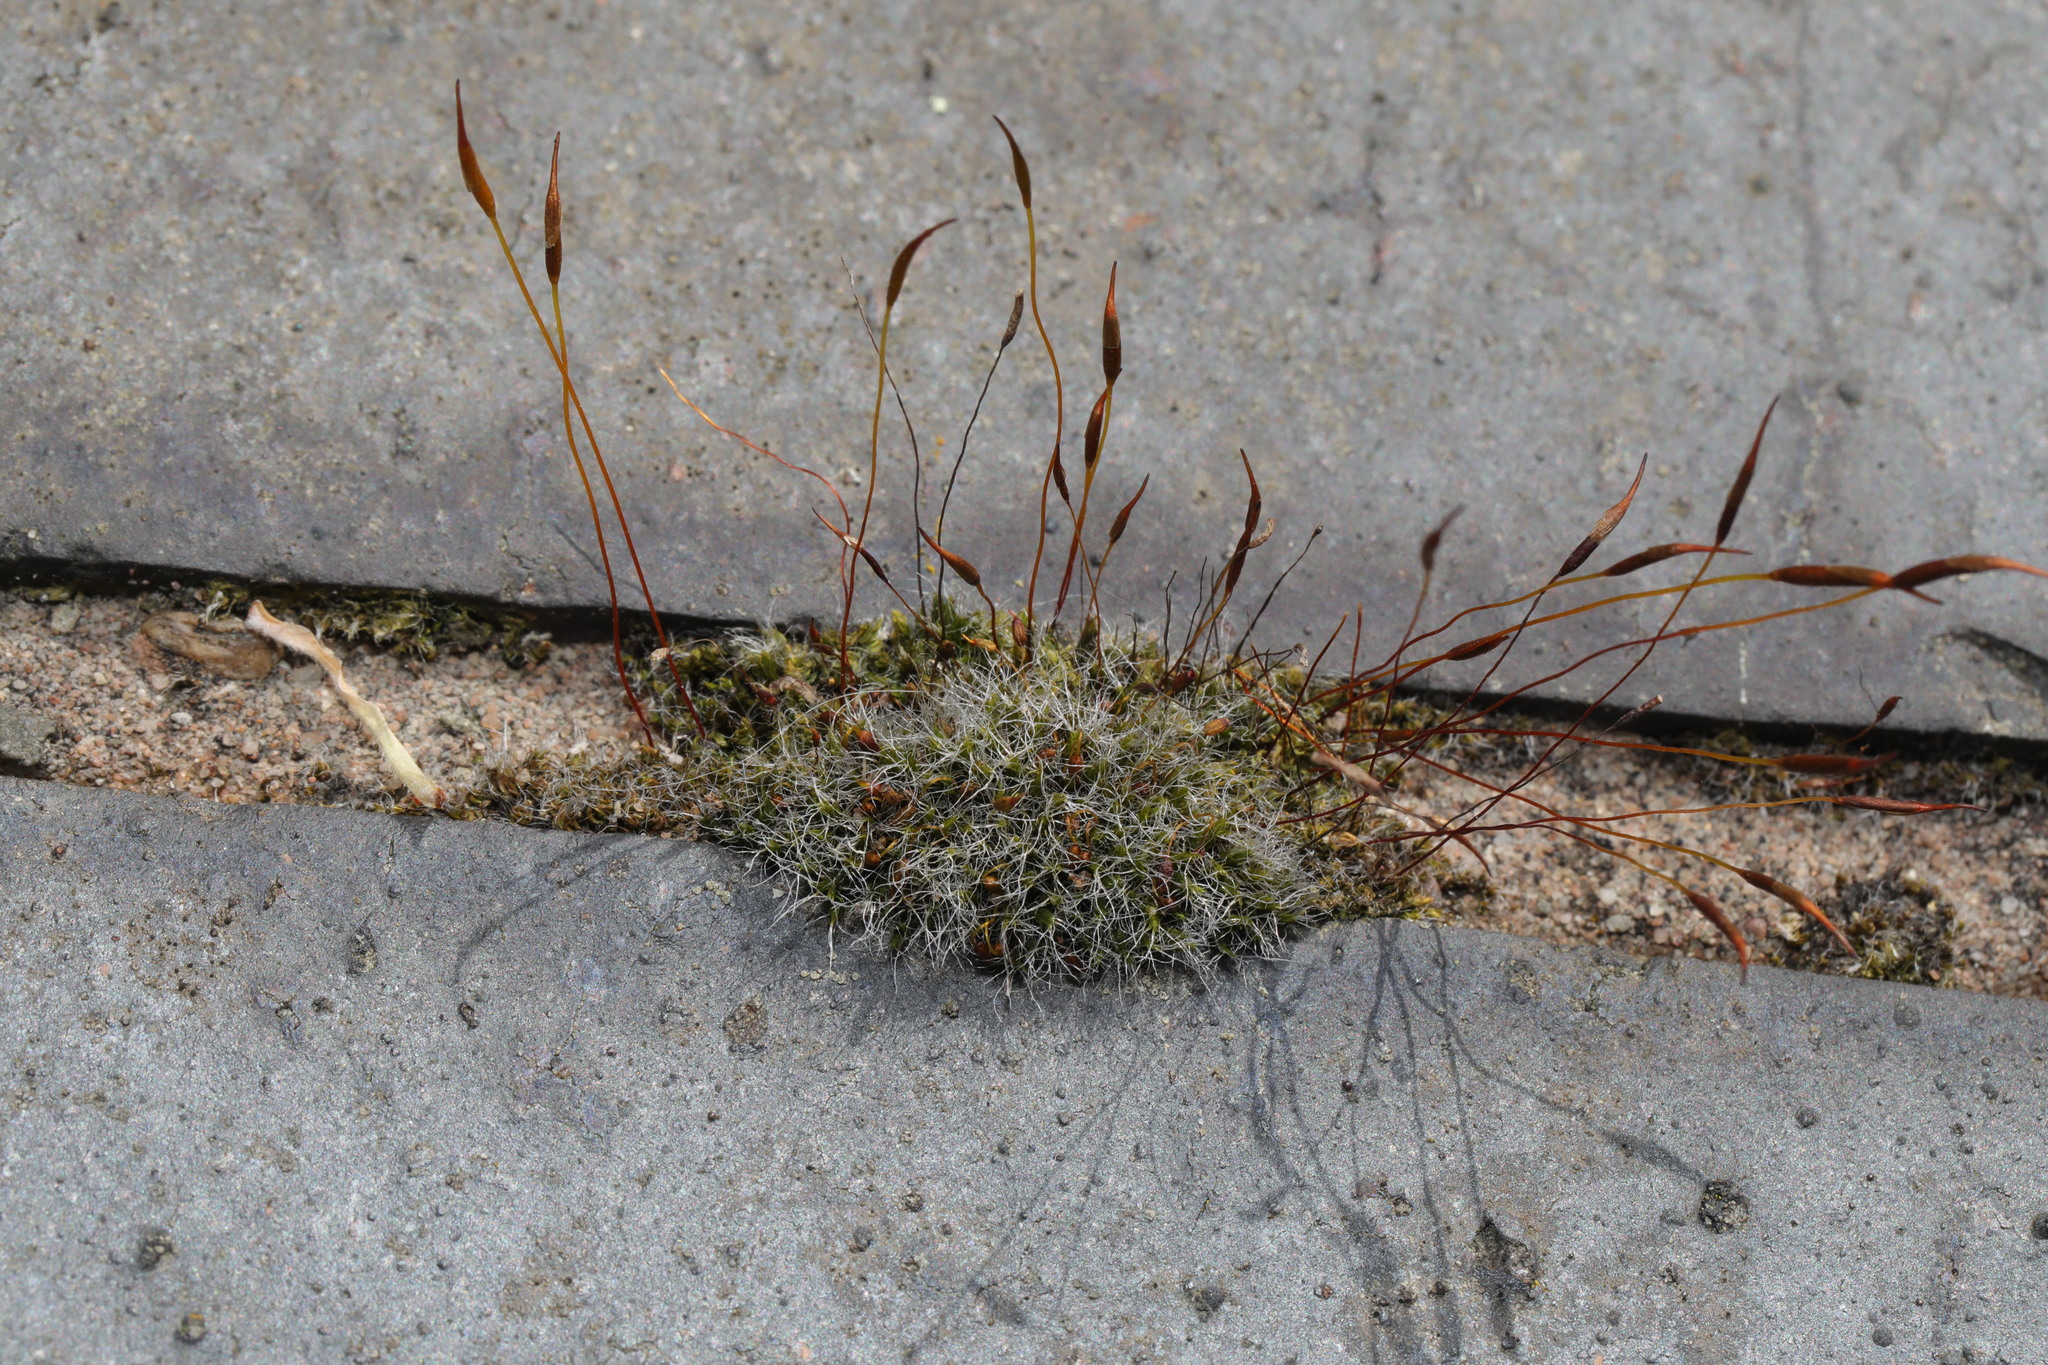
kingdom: Plantae
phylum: Bryophyta
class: Bryopsida
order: Pottiales
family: Pottiaceae
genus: Tortula
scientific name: Tortula muralis
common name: Wall screw-moss
